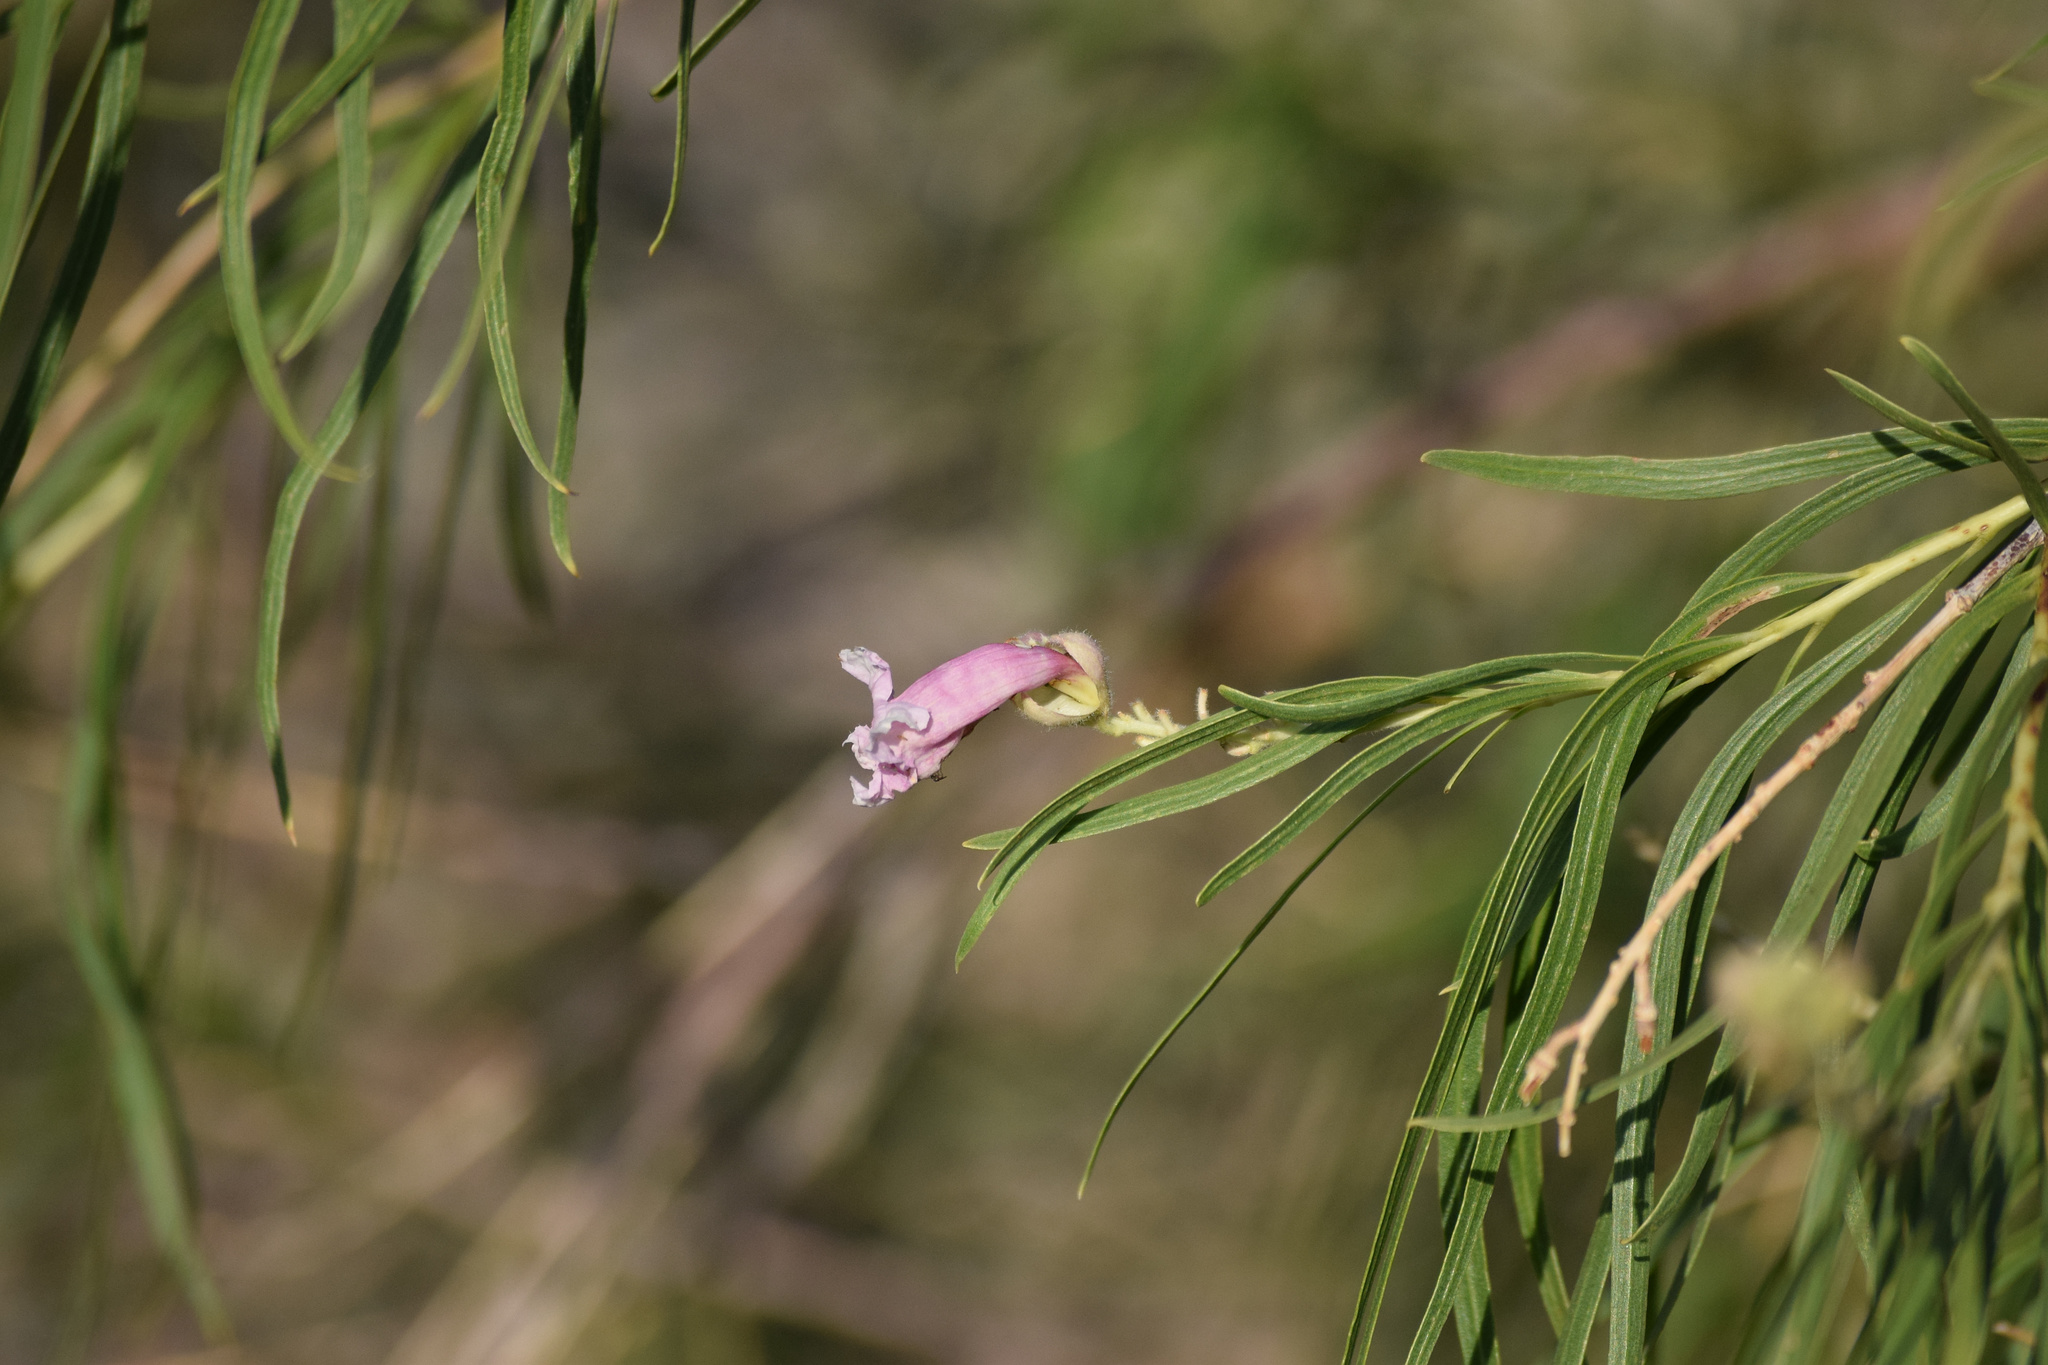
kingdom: Plantae
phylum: Tracheophyta
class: Magnoliopsida
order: Lamiales
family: Bignoniaceae
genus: Chilopsis
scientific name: Chilopsis linearis
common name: Desert-willow
